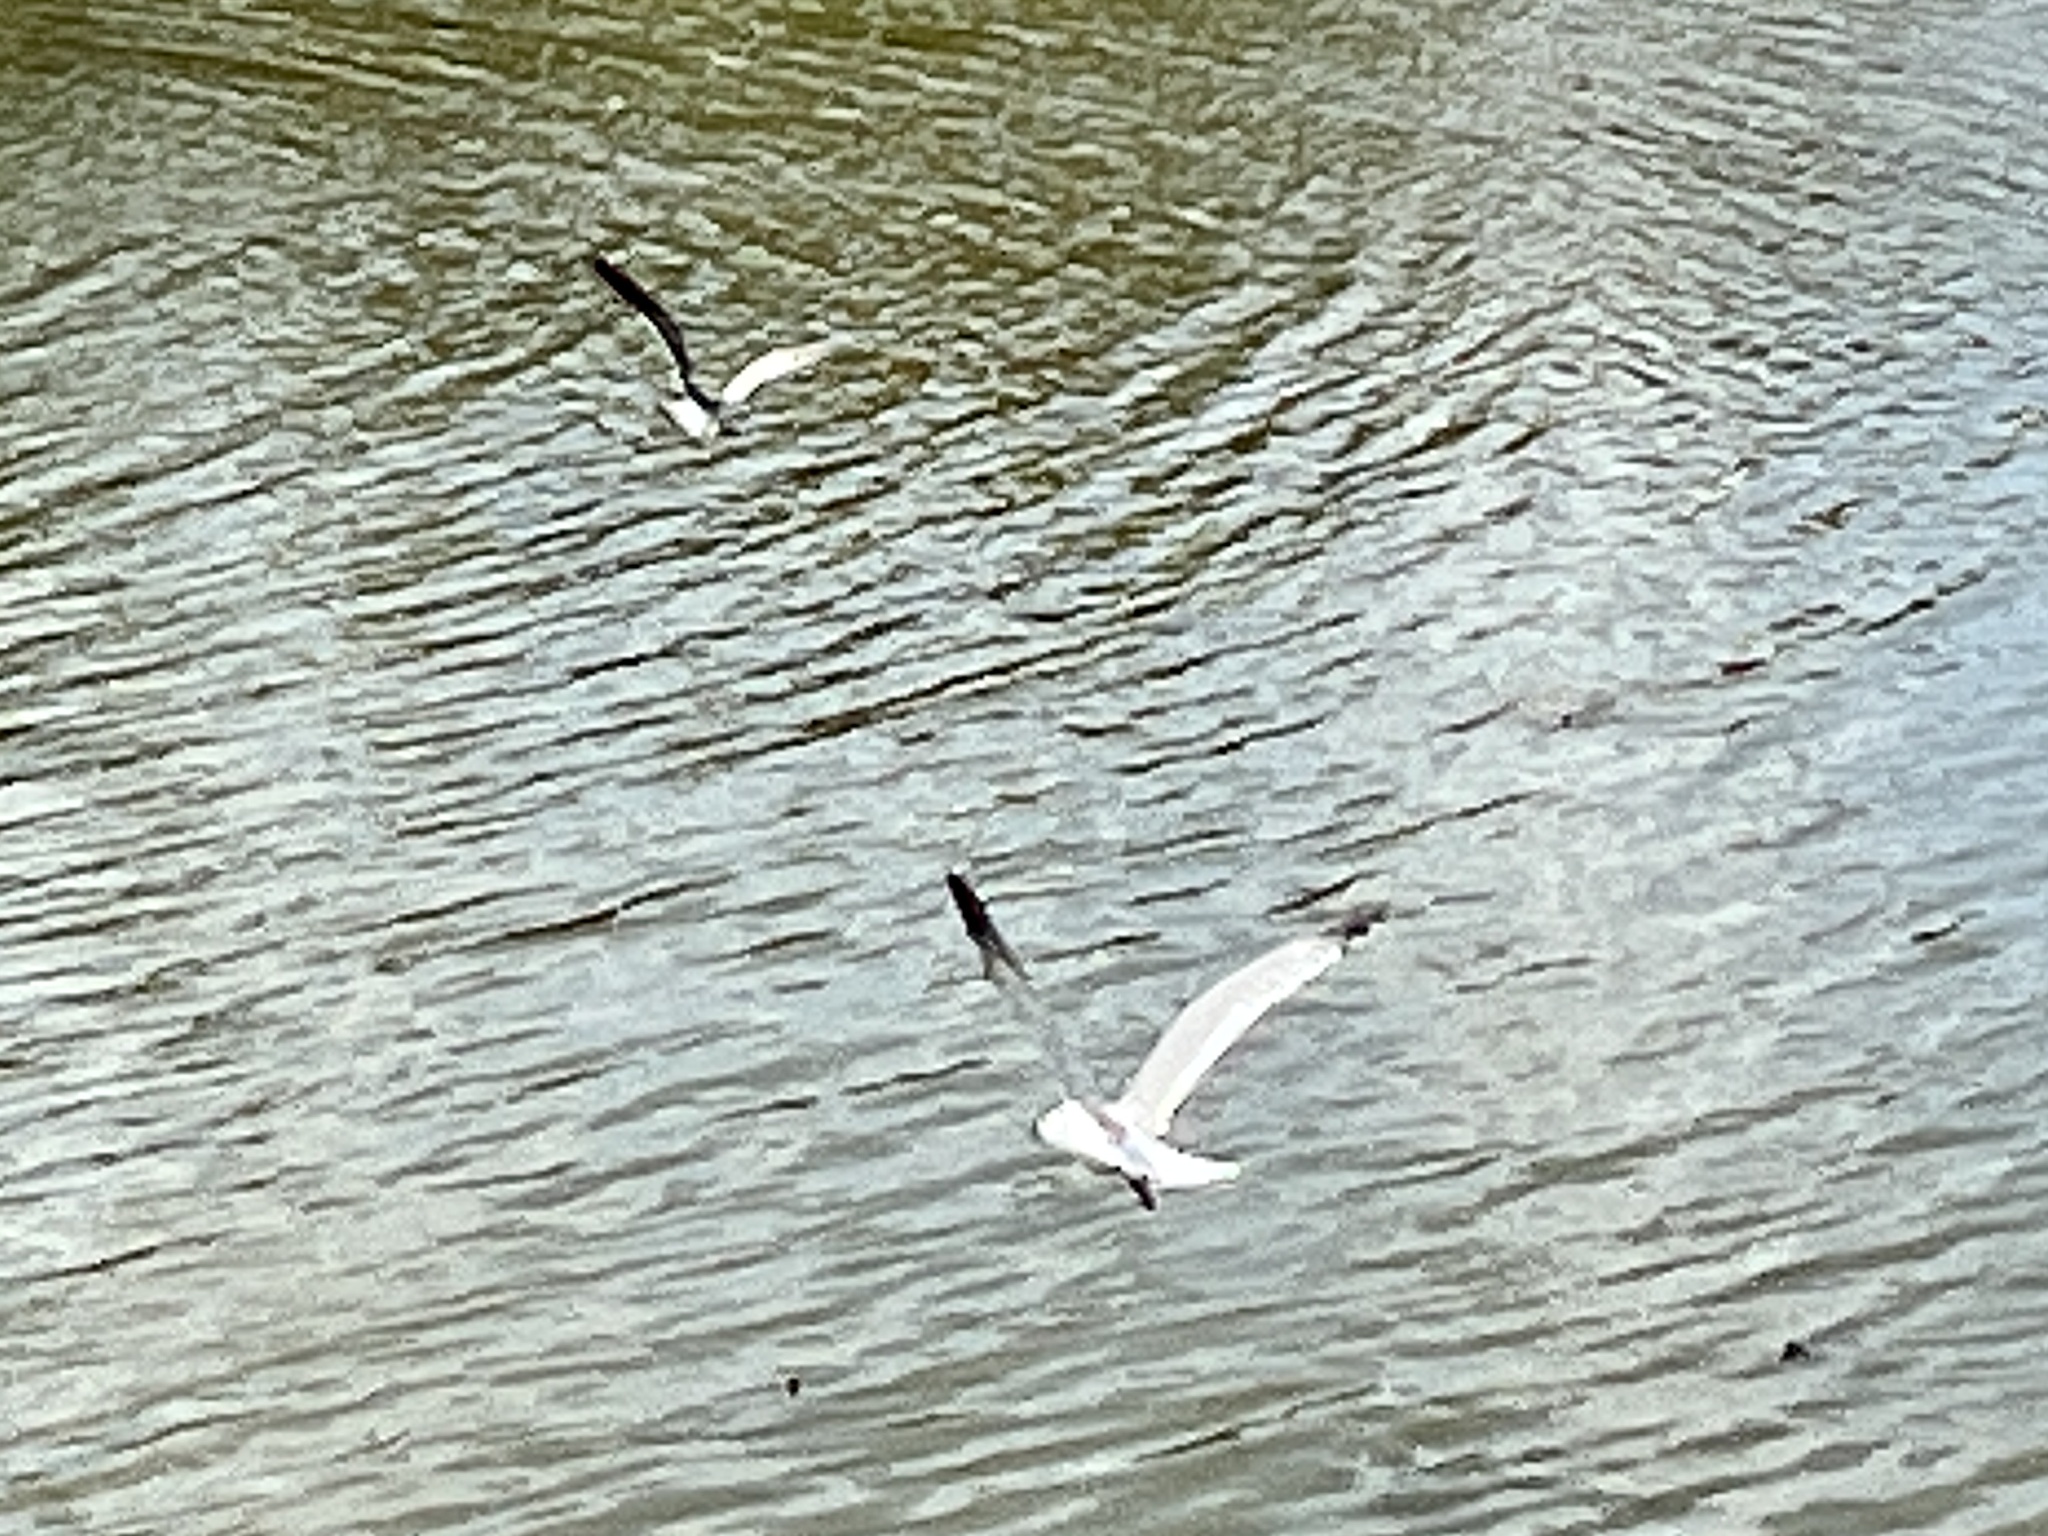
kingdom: Animalia
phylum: Chordata
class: Aves
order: Charadriiformes
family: Laridae
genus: Leucophaeus
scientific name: Leucophaeus atricilla
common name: Laughing gull
